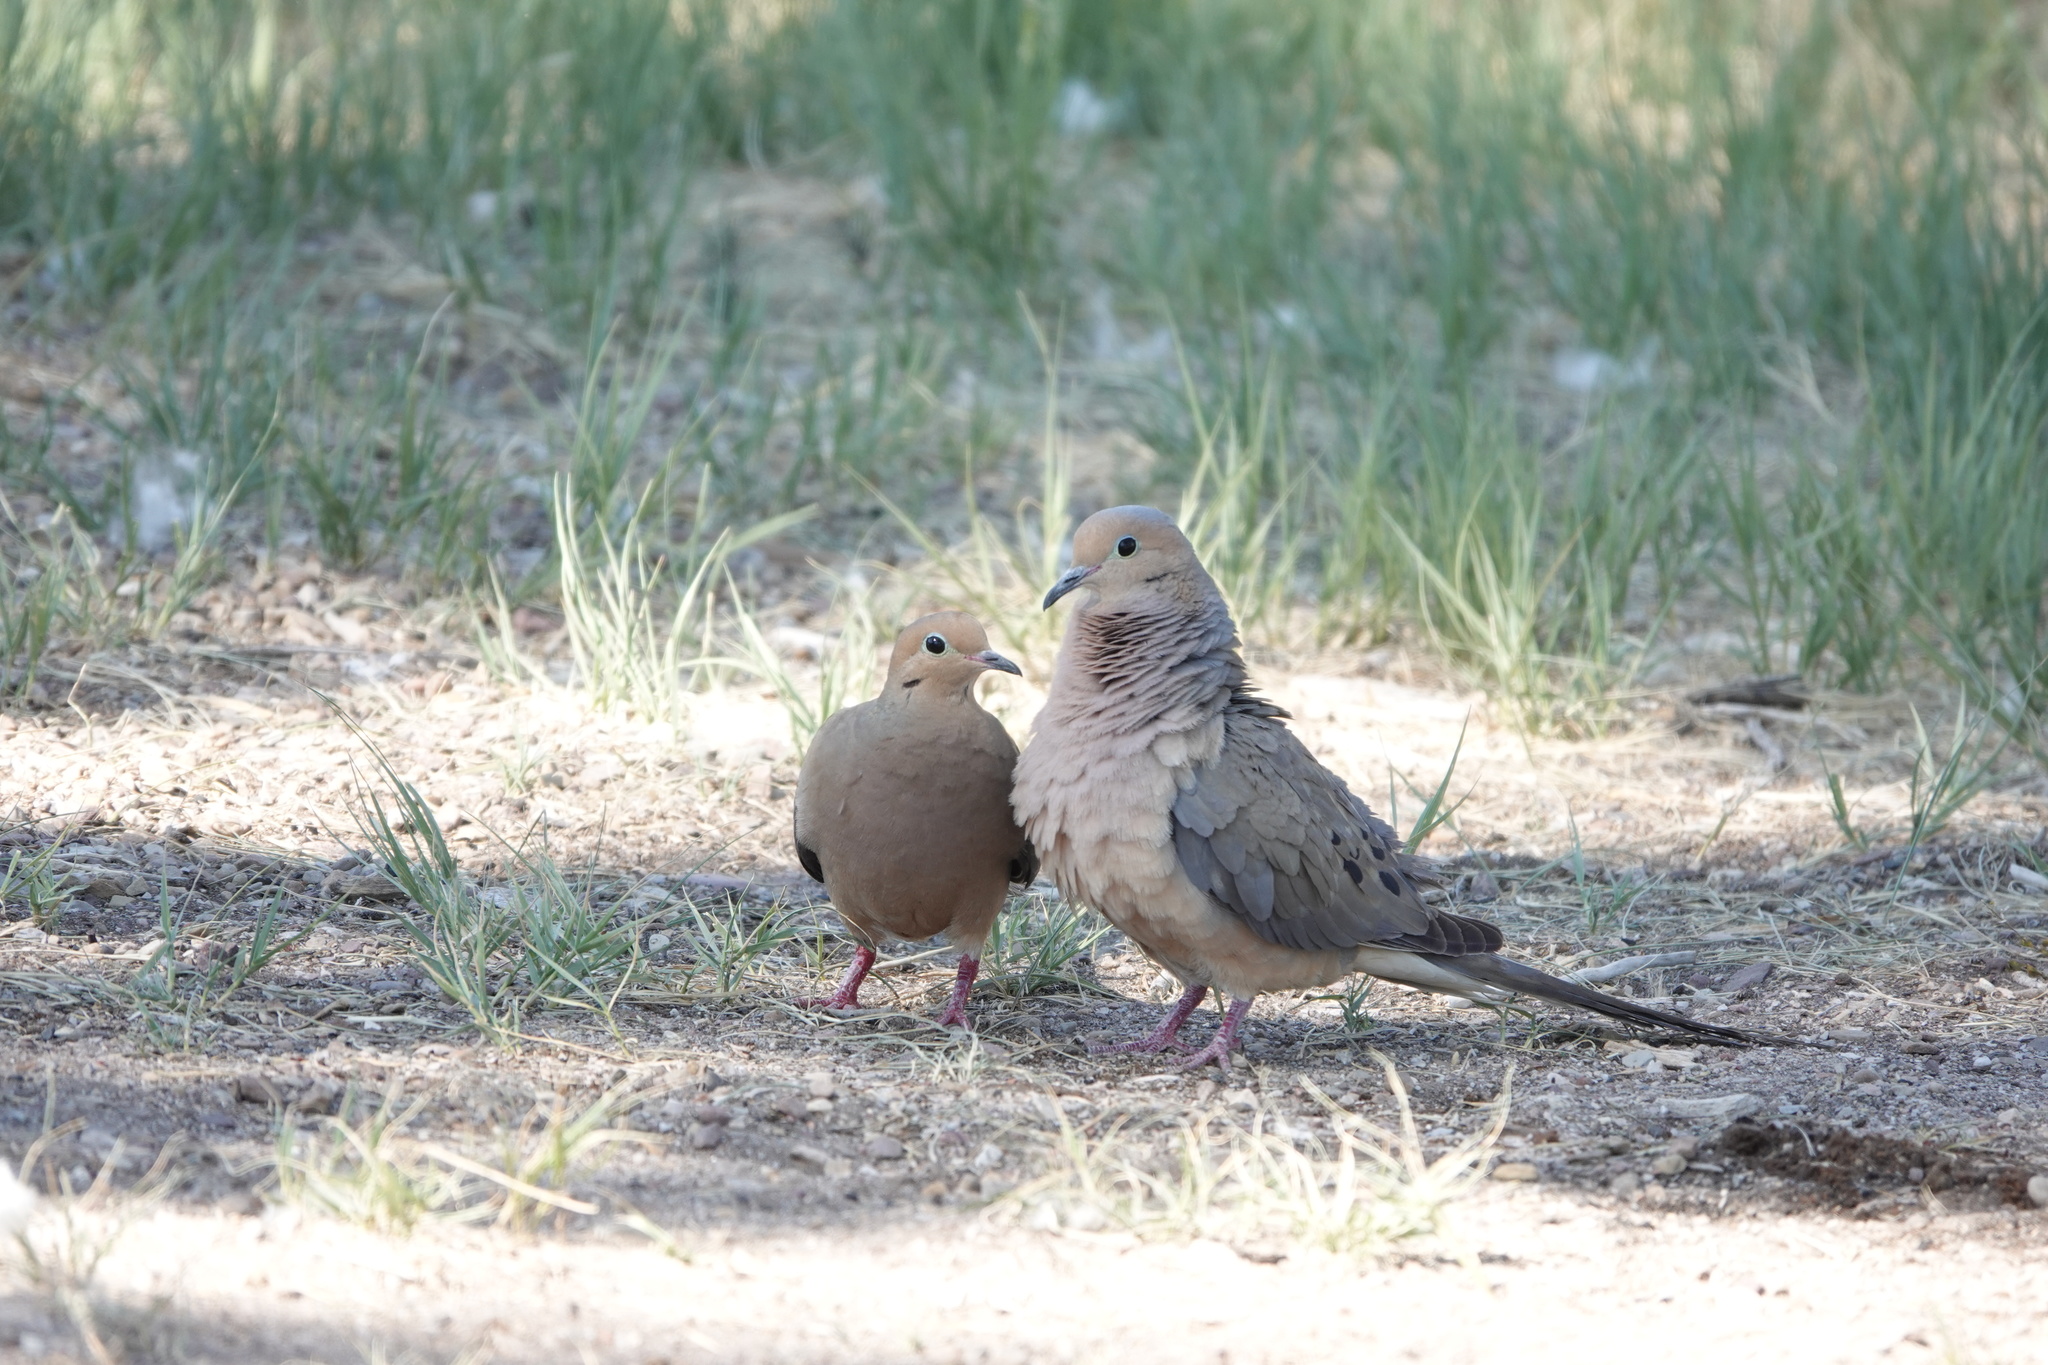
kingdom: Animalia
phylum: Chordata
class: Aves
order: Columbiformes
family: Columbidae
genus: Zenaida
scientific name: Zenaida macroura
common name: Mourning dove
